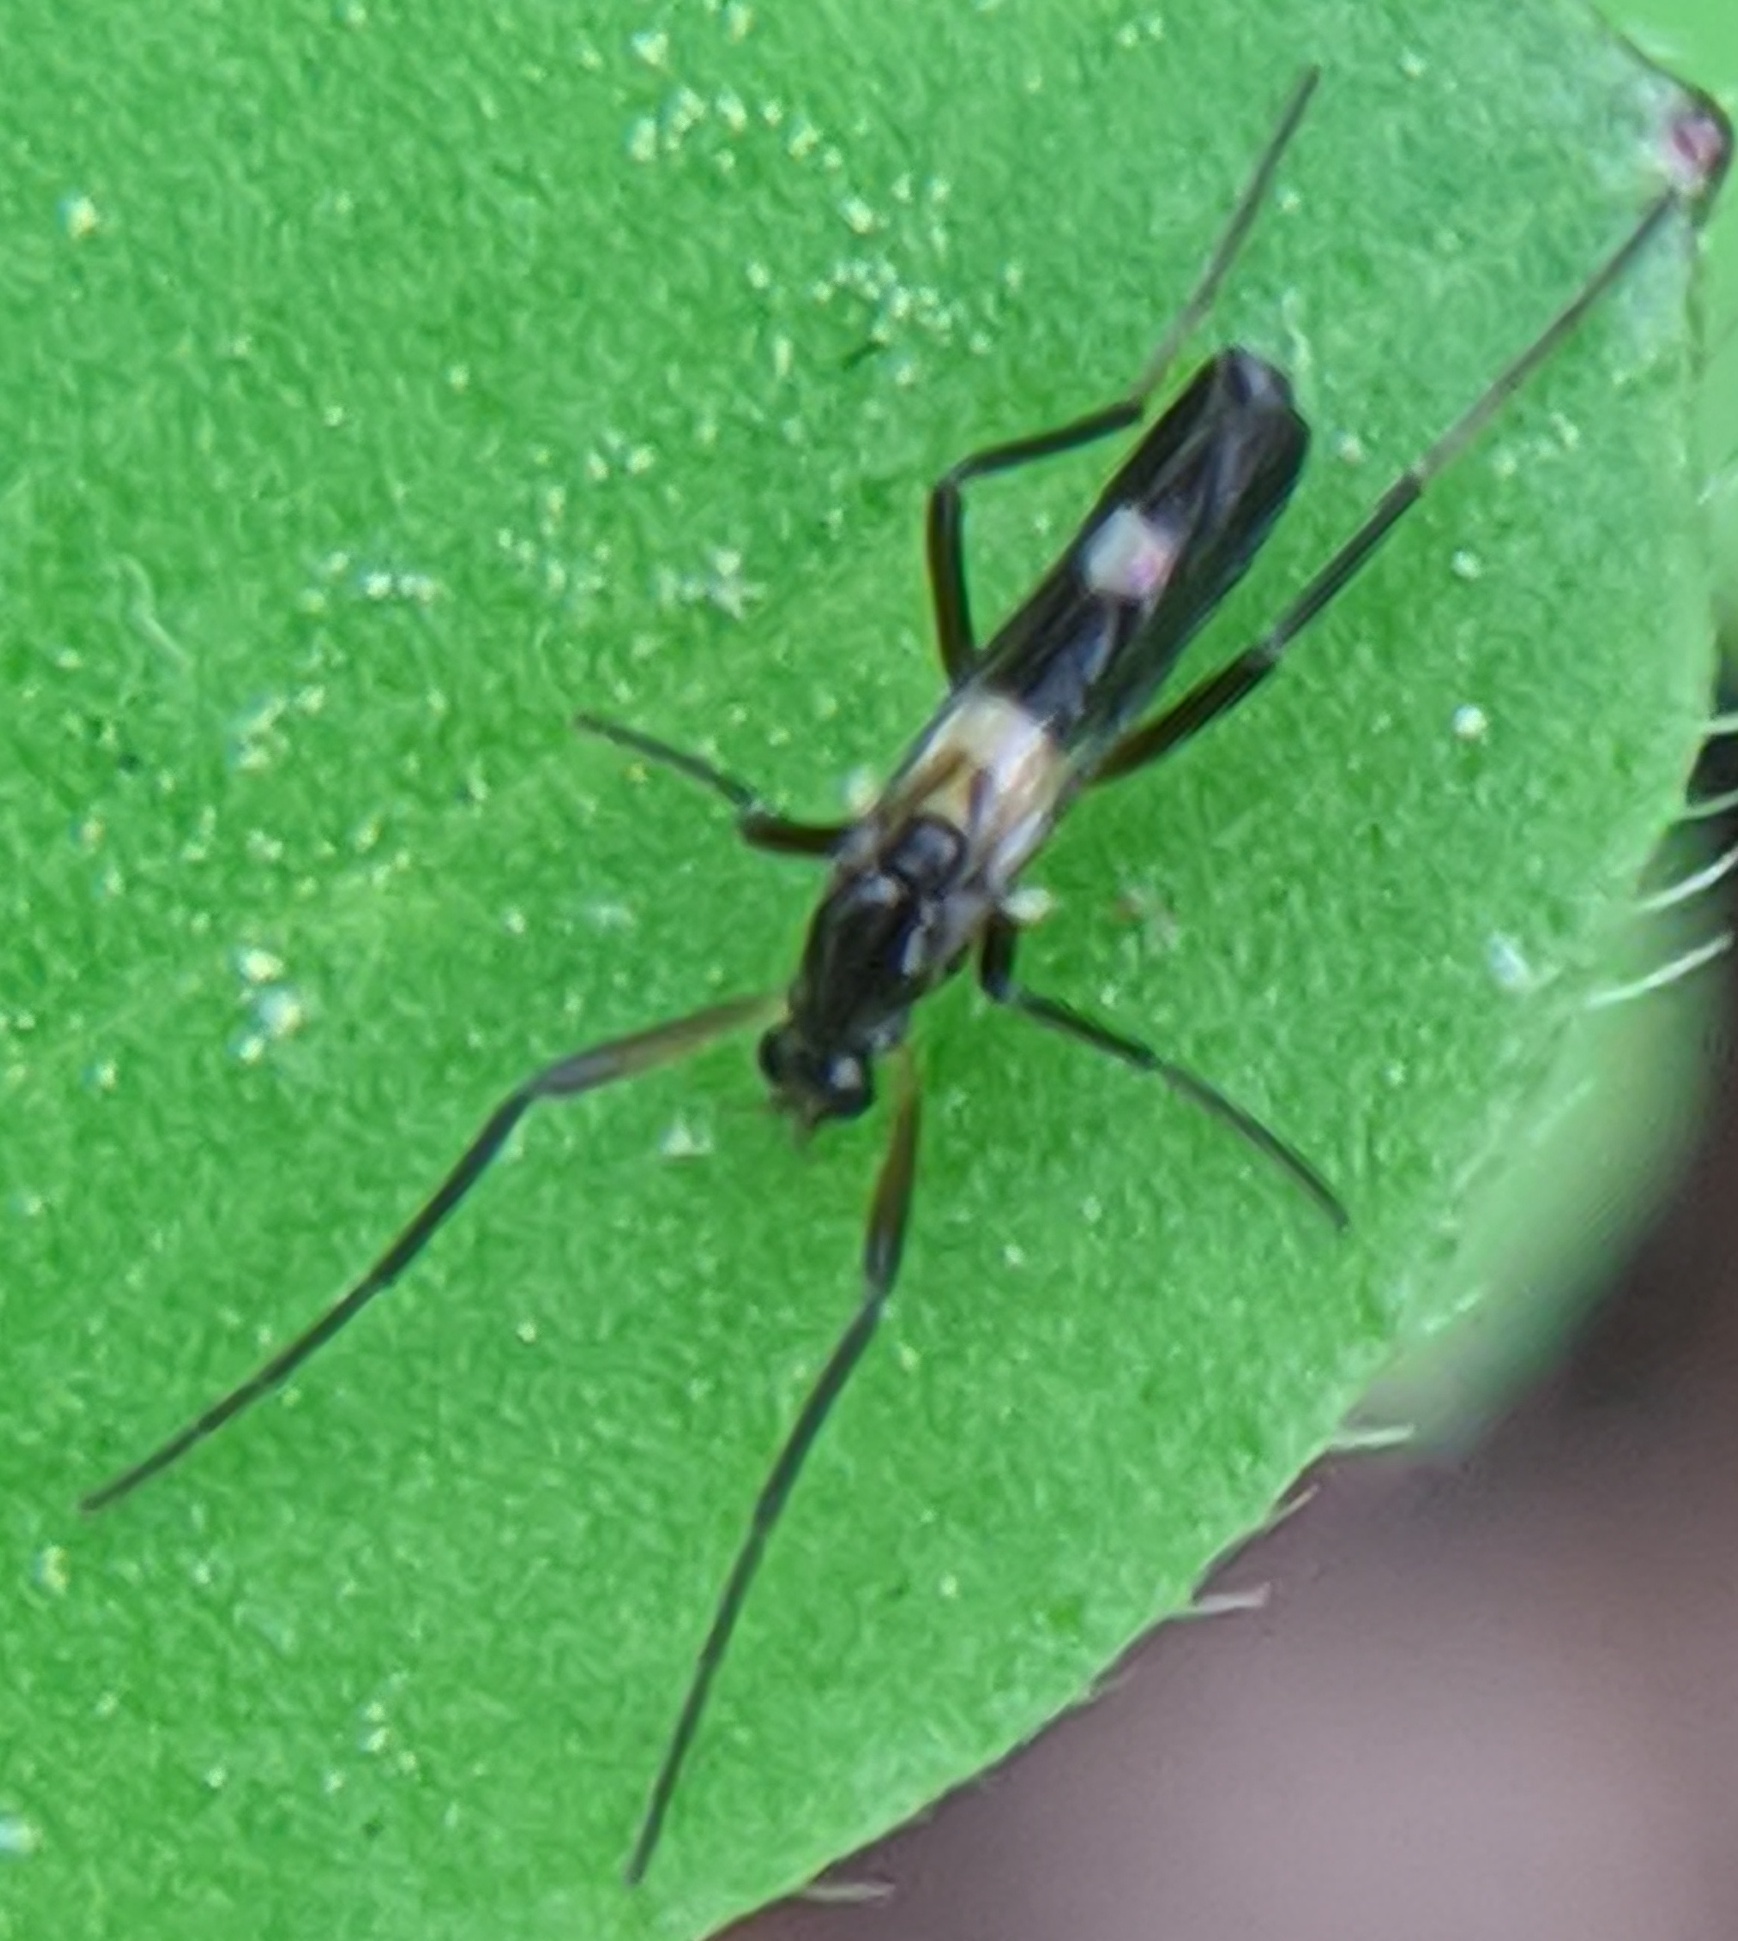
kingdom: Animalia
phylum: Arthropoda
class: Insecta
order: Diptera
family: Chironomidae
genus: Chasmatonotus
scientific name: Chasmatonotus atripes
